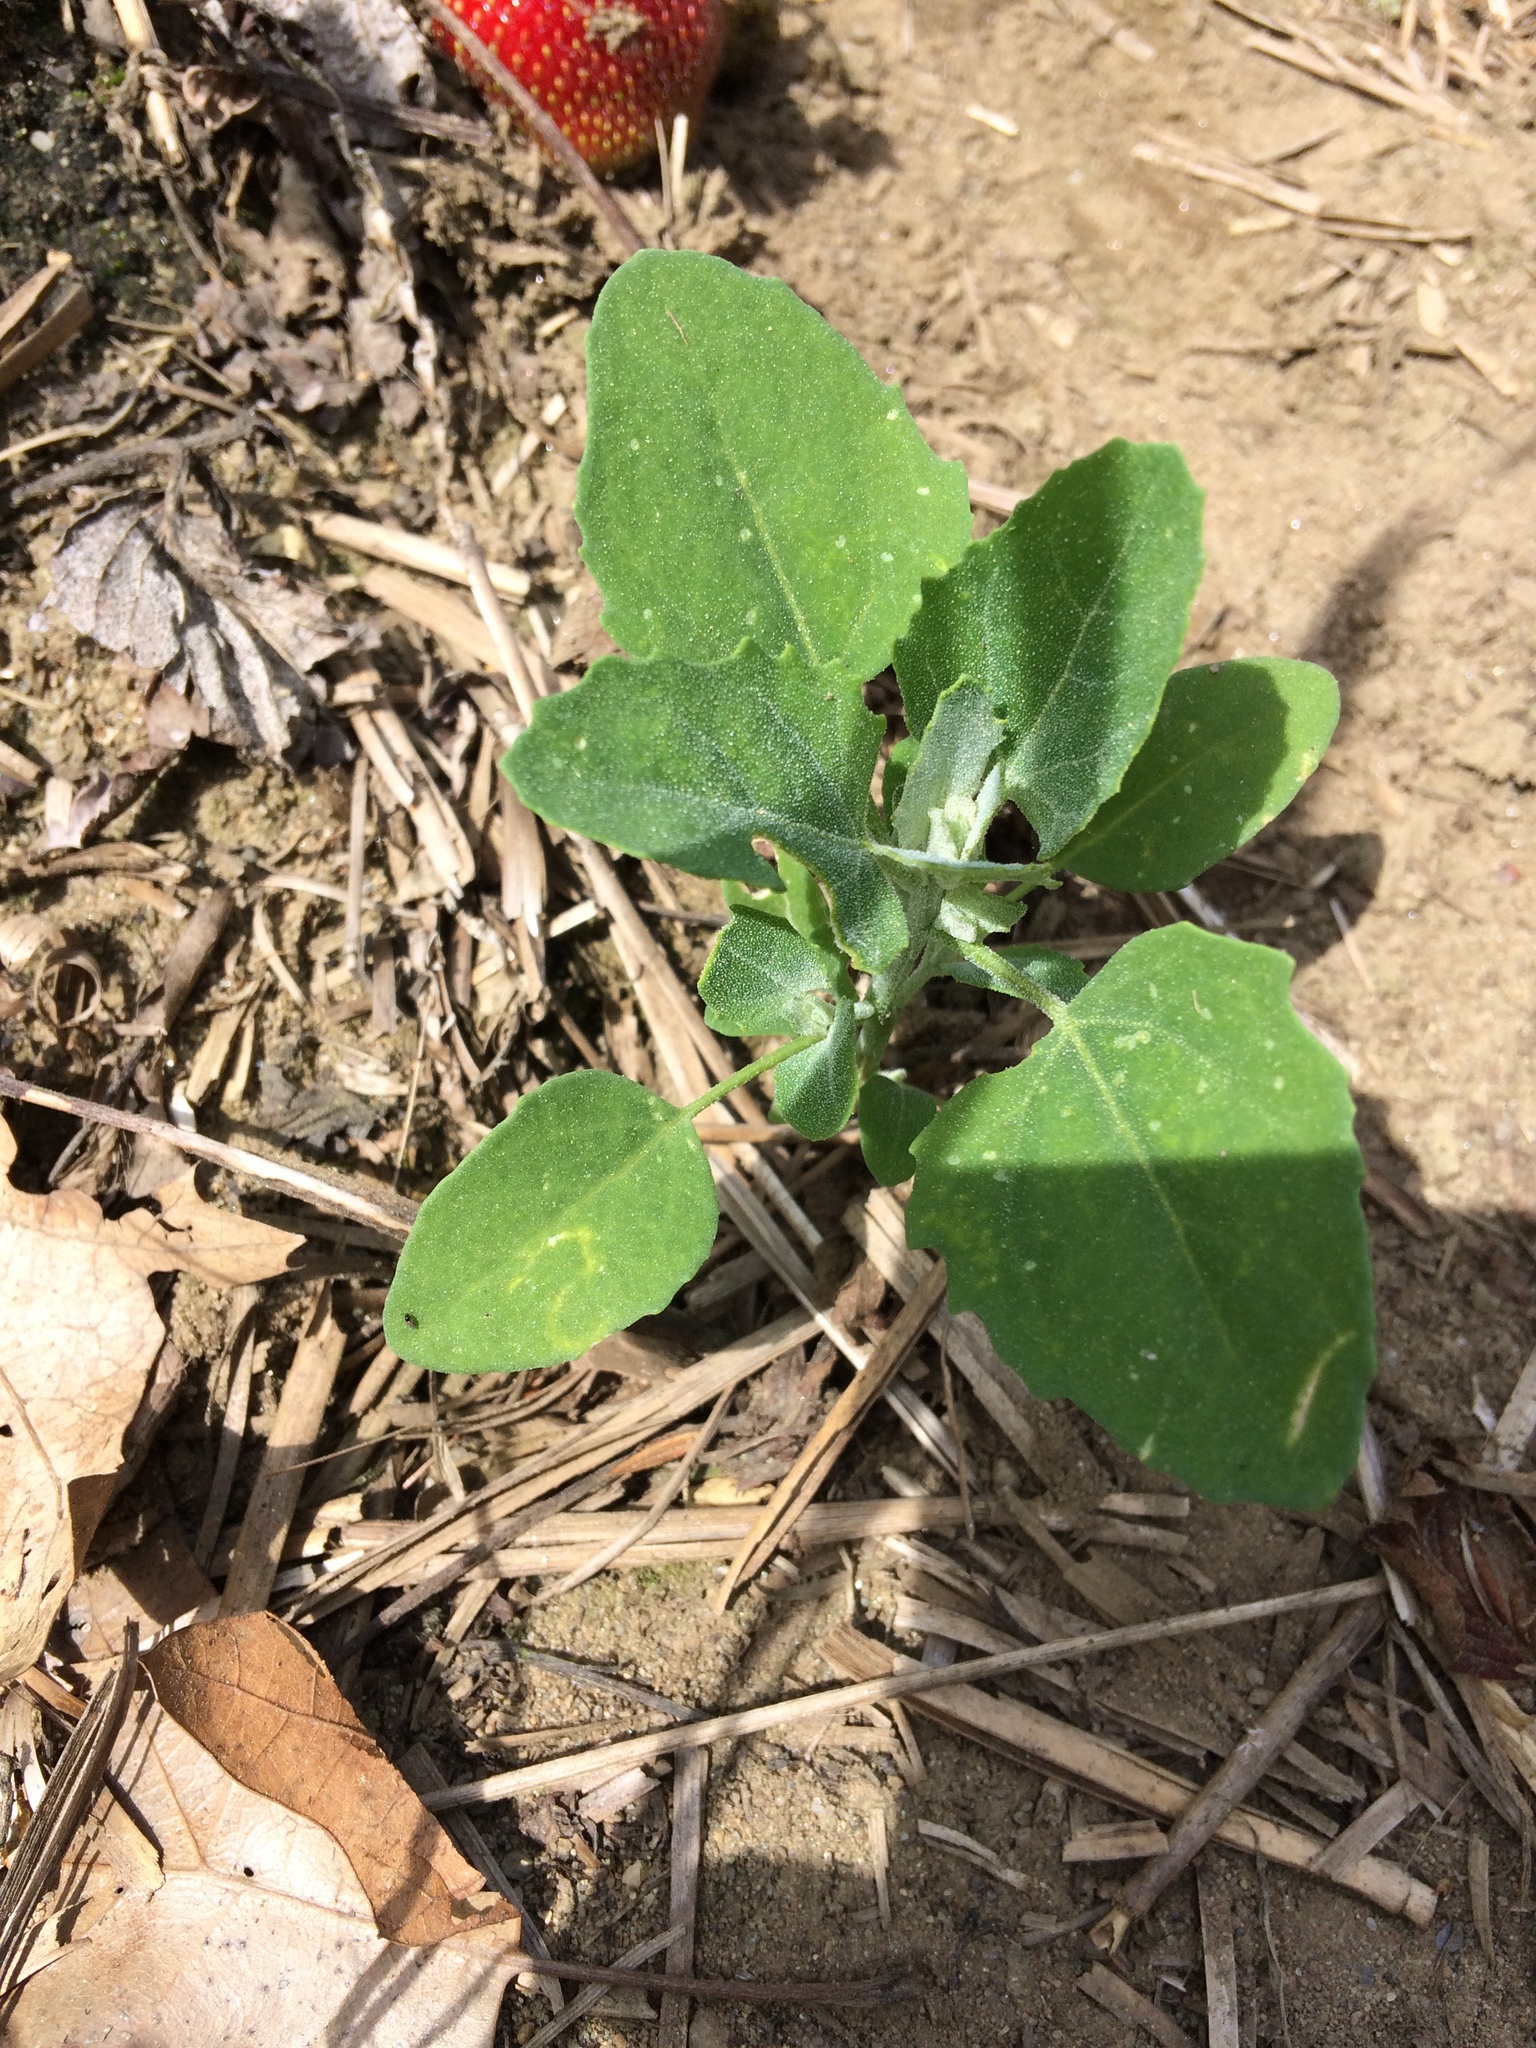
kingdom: Plantae
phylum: Tracheophyta
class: Magnoliopsida
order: Caryophyllales
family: Amaranthaceae
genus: Chenopodium
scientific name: Chenopodium album
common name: Fat-hen
